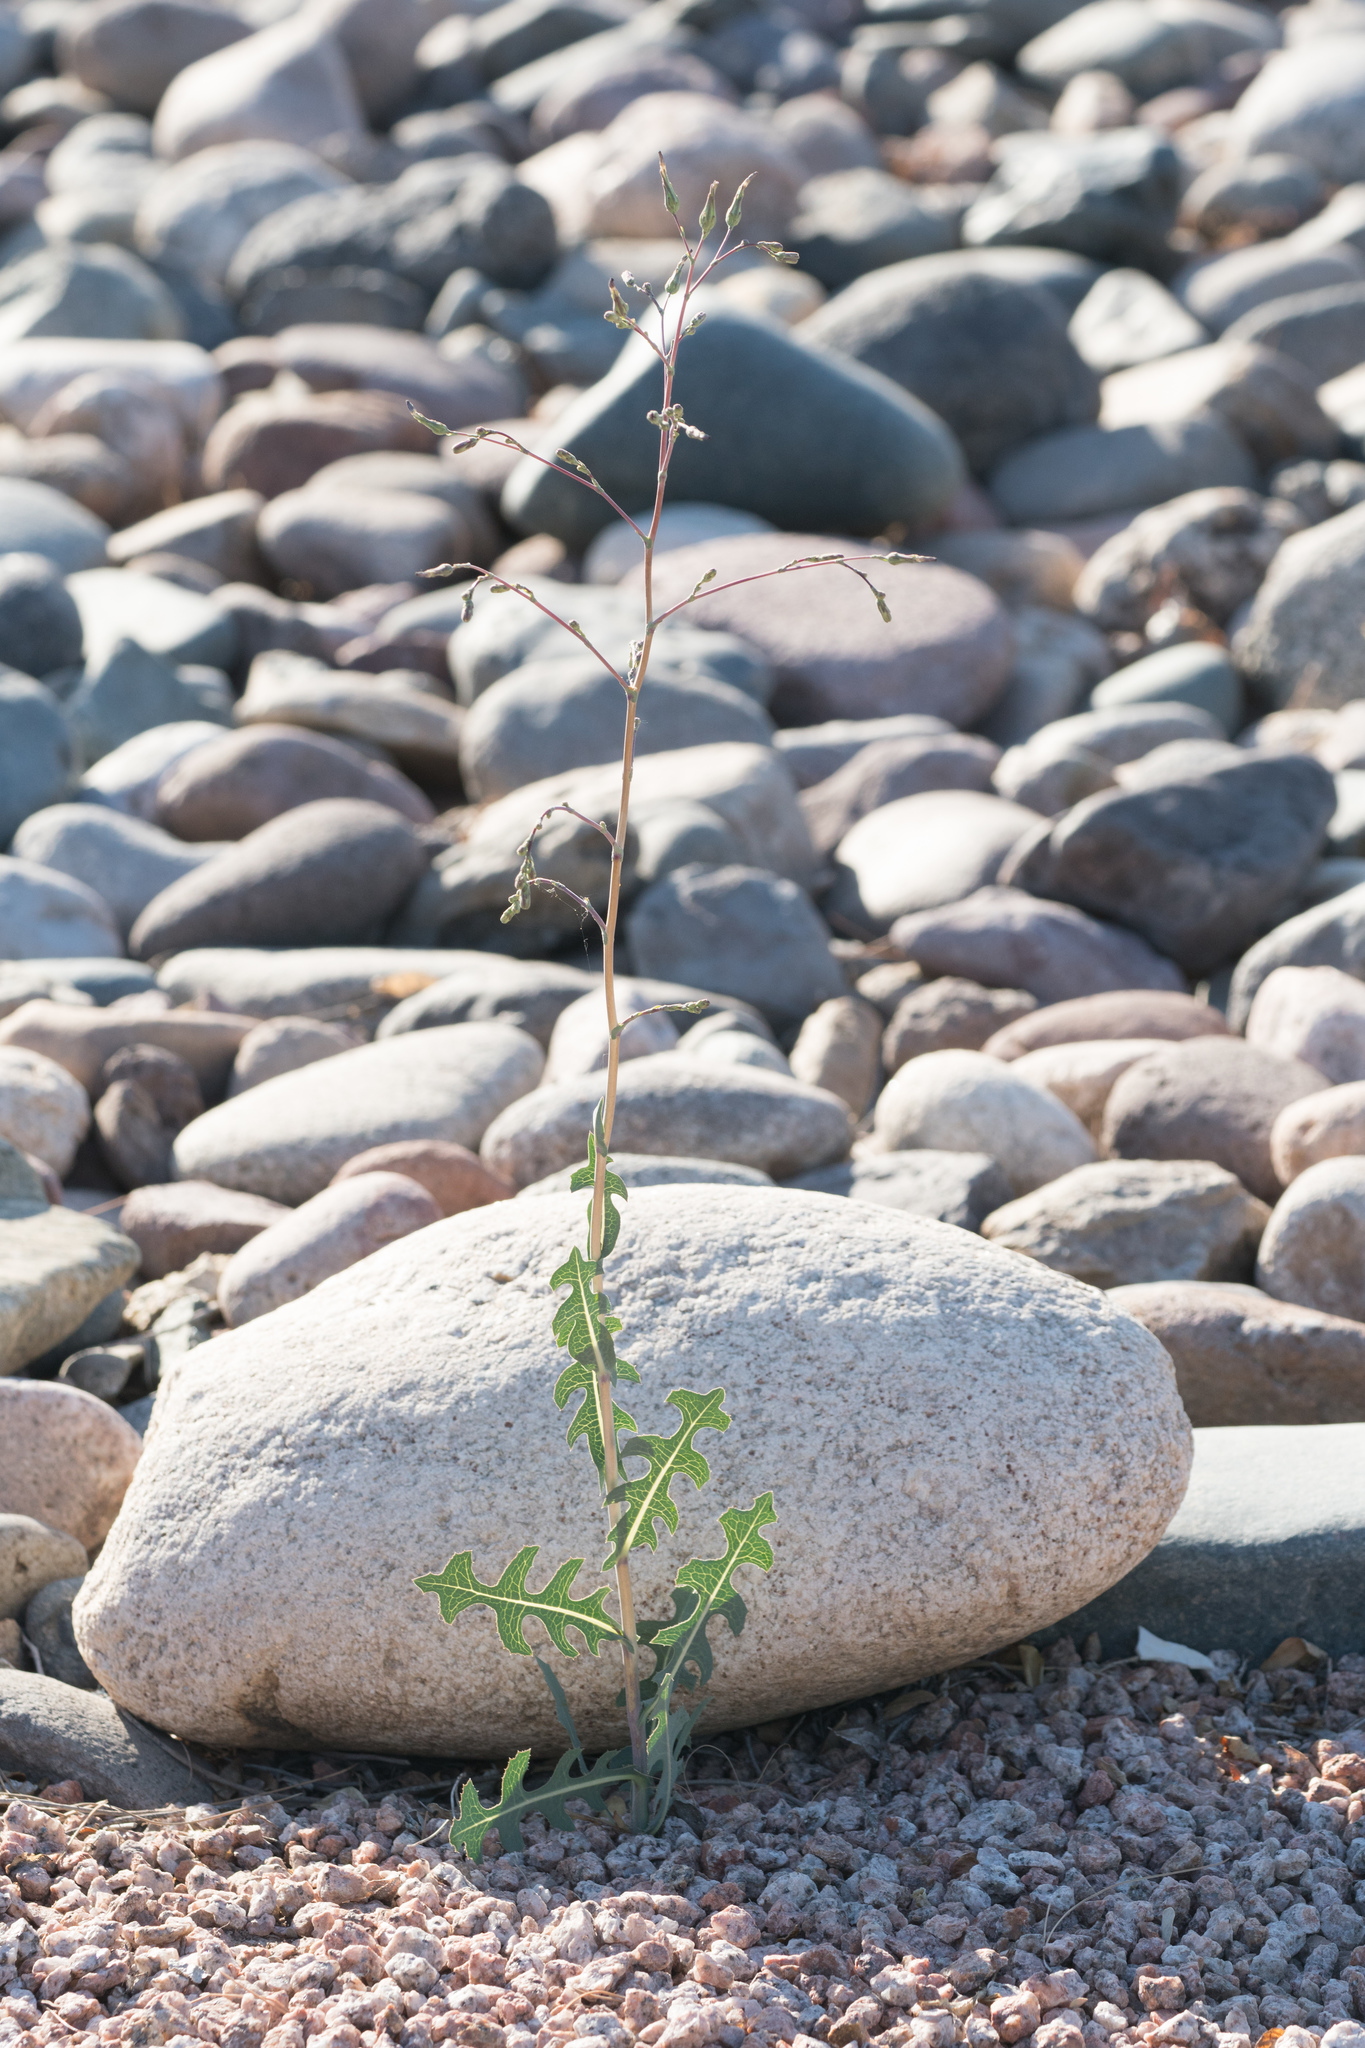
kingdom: Plantae
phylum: Tracheophyta
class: Magnoliopsida
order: Asterales
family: Asteraceae
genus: Lactuca
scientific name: Lactuca serriola
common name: Prickly lettuce
